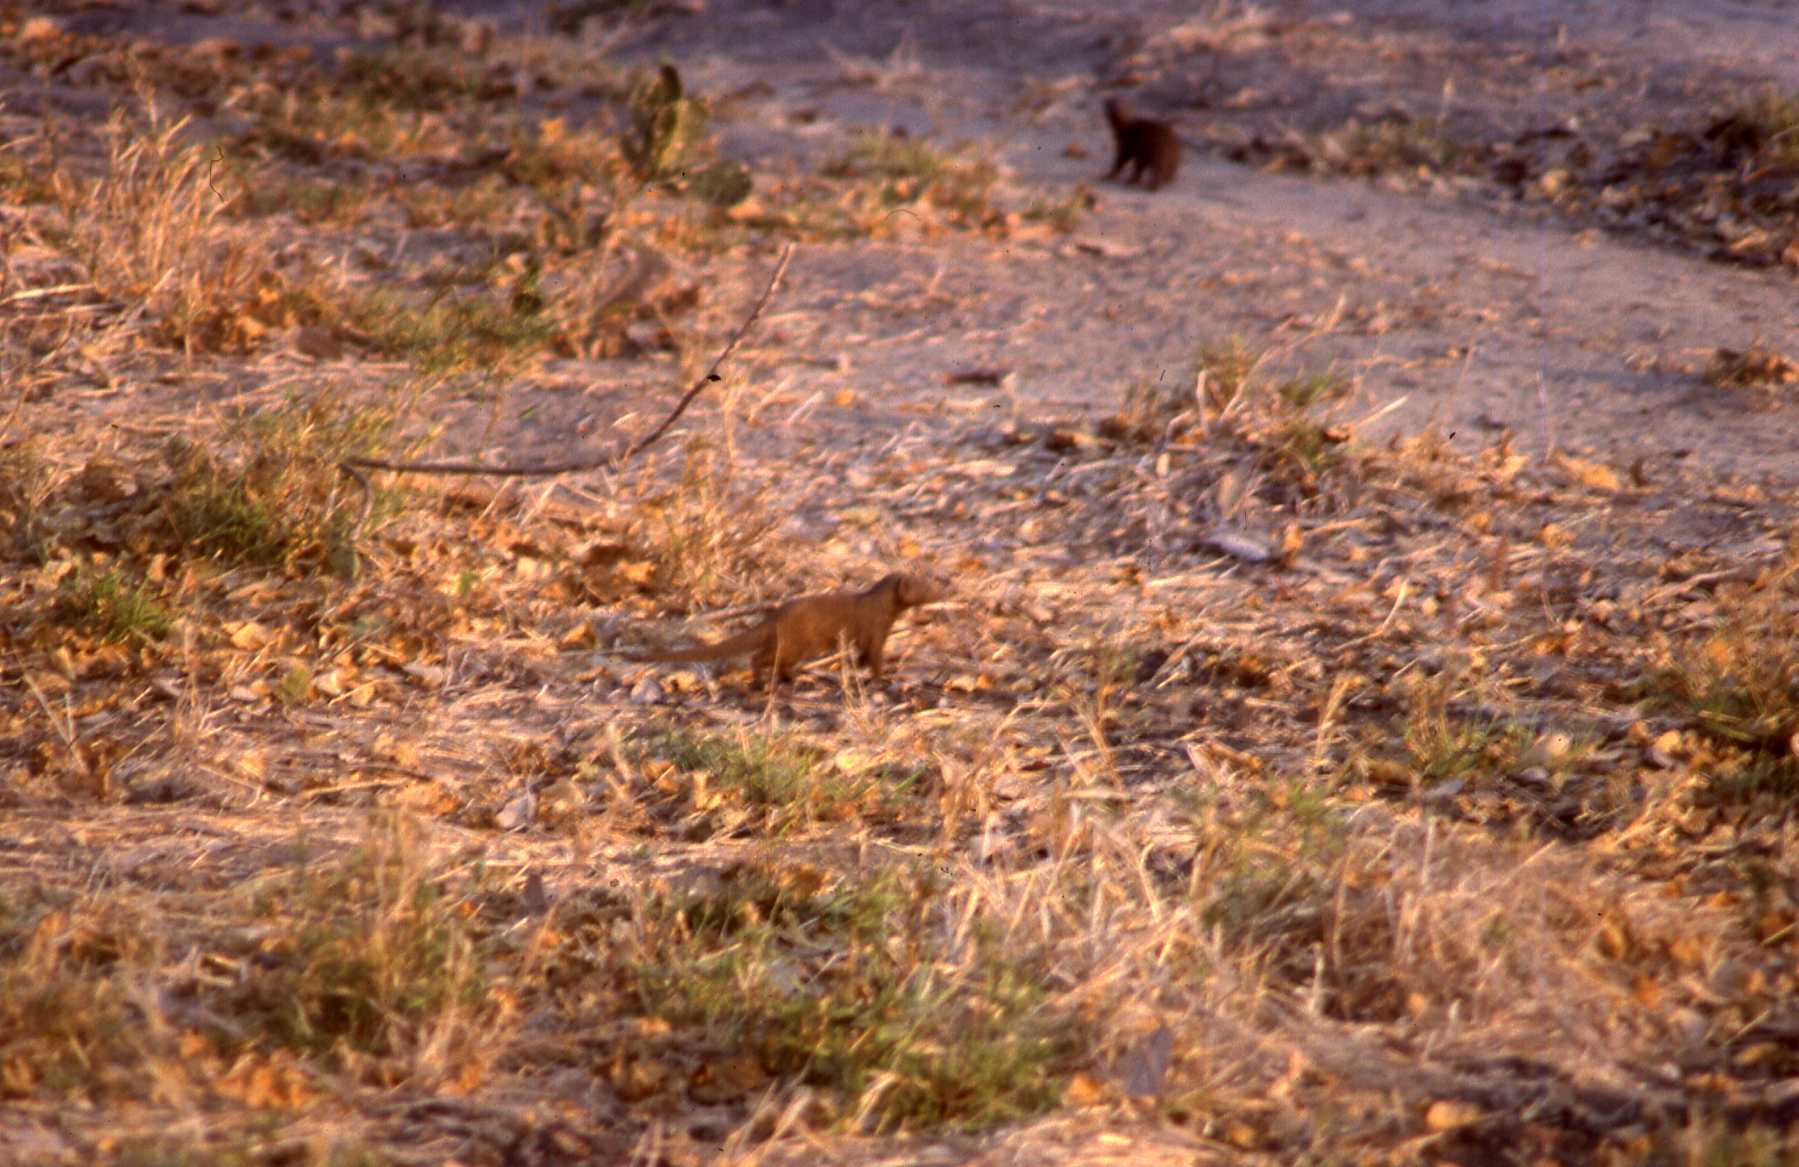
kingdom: Animalia
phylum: Chordata
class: Mammalia
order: Carnivora
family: Herpestidae
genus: Helogale
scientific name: Helogale parvula
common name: Common dwarf mongoose
